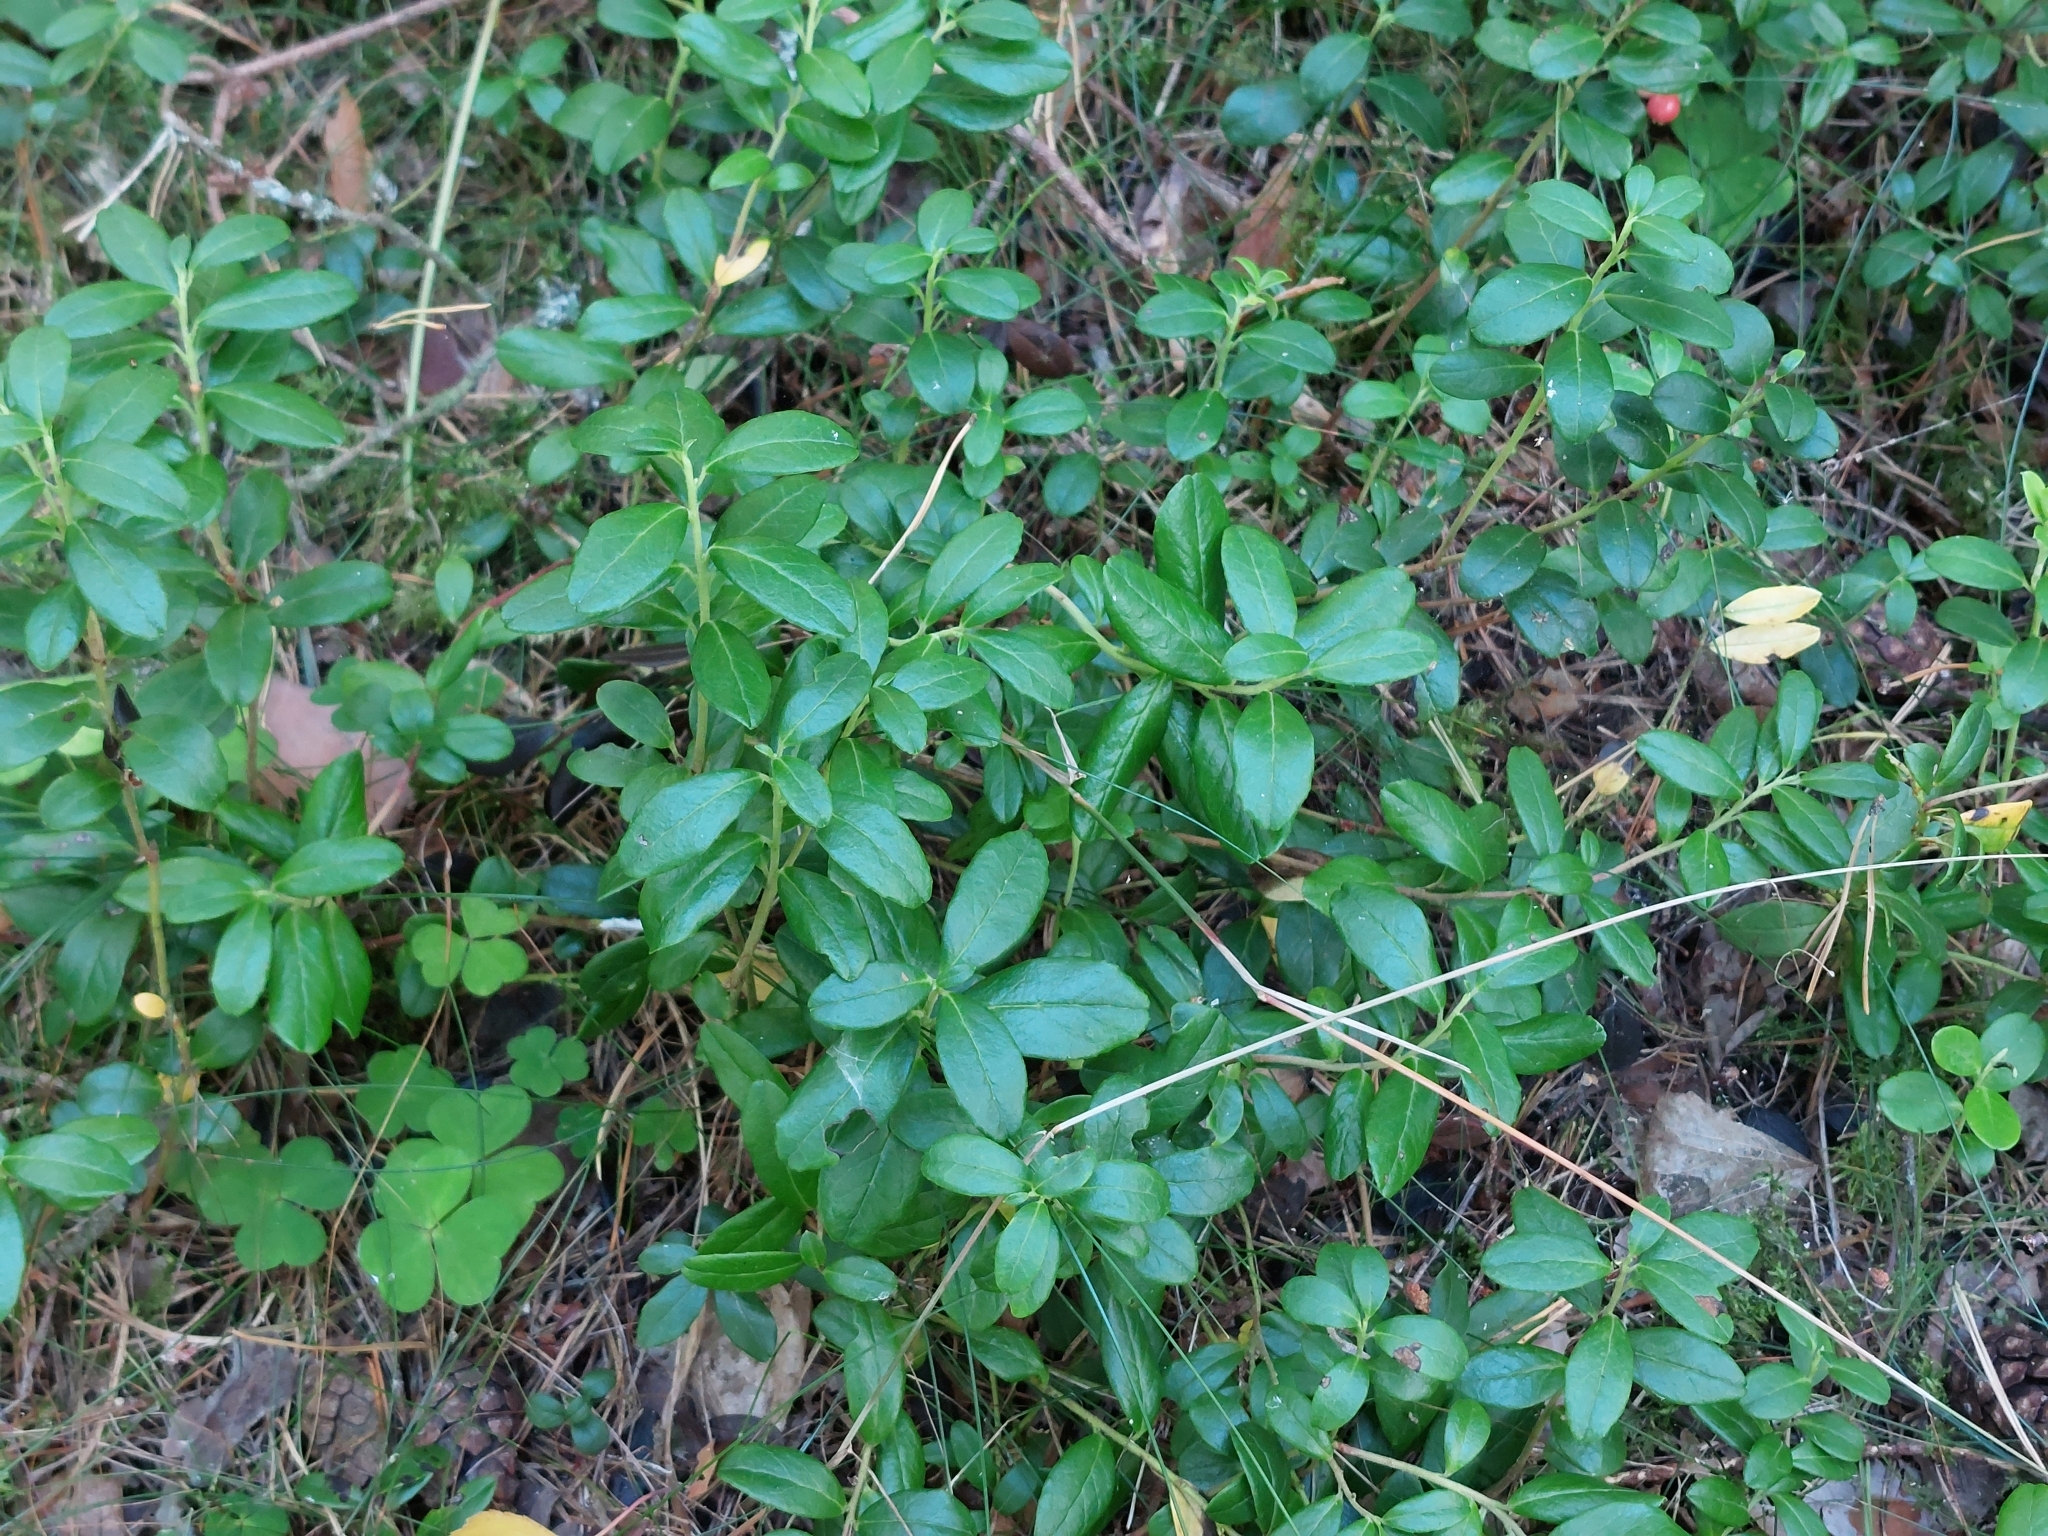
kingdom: Plantae
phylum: Tracheophyta
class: Magnoliopsida
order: Ericales
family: Ericaceae
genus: Vaccinium
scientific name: Vaccinium vitis-idaea
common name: Cowberry
